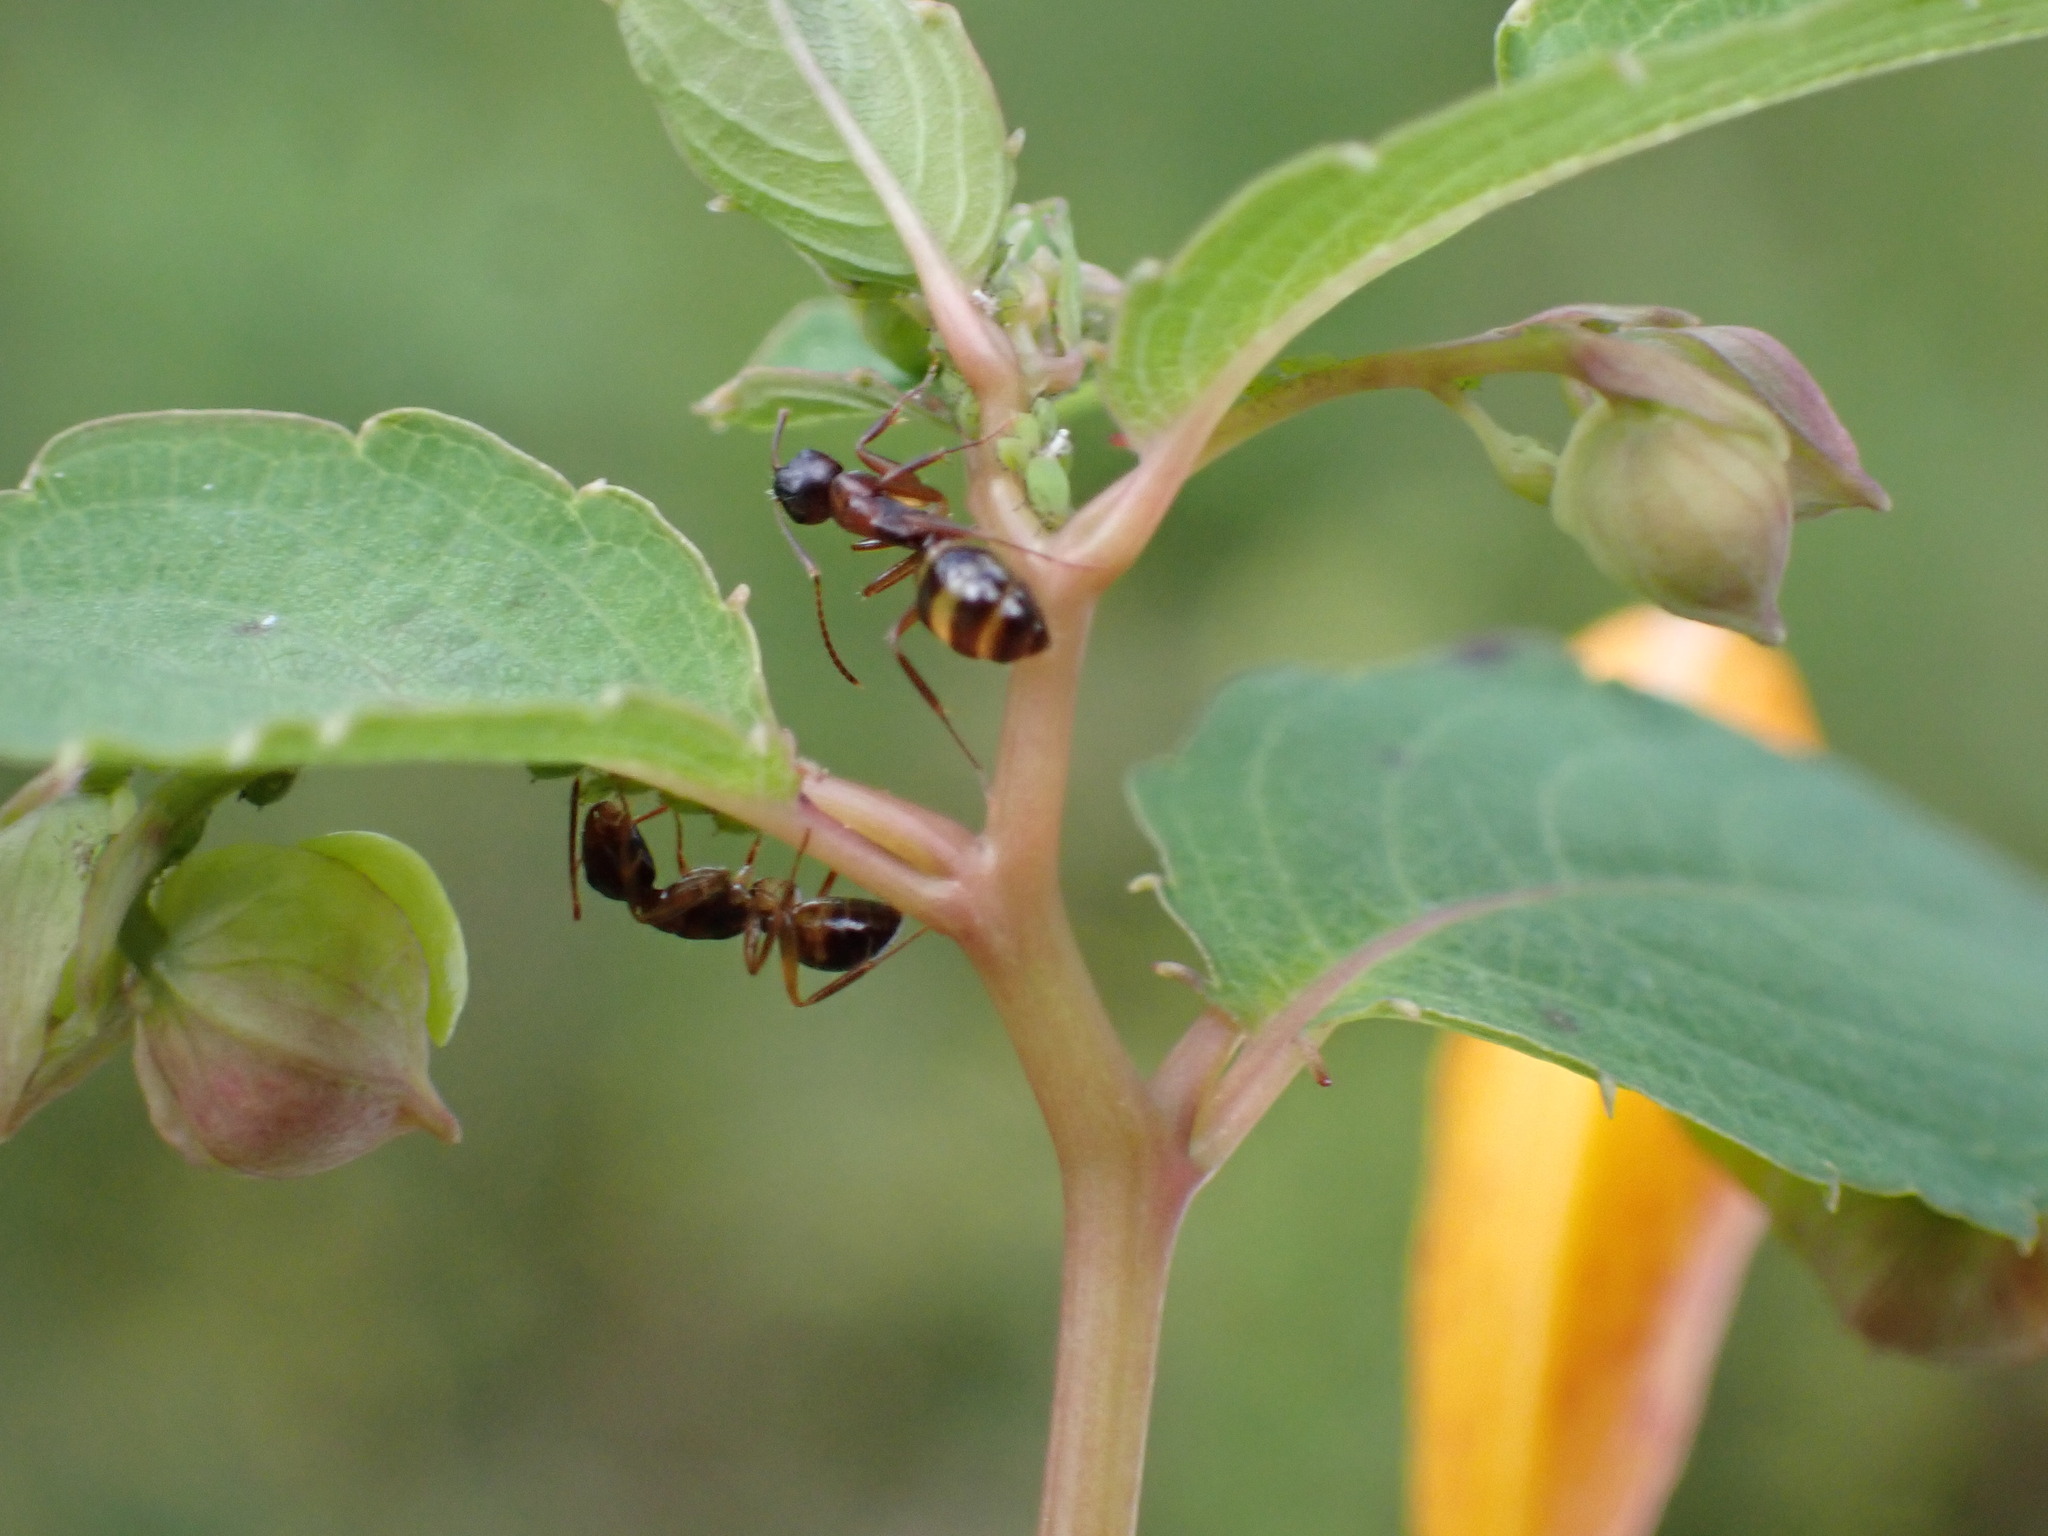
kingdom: Animalia
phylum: Arthropoda
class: Insecta
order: Hymenoptera
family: Formicidae
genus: Camponotus
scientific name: Camponotus subbarbatus
